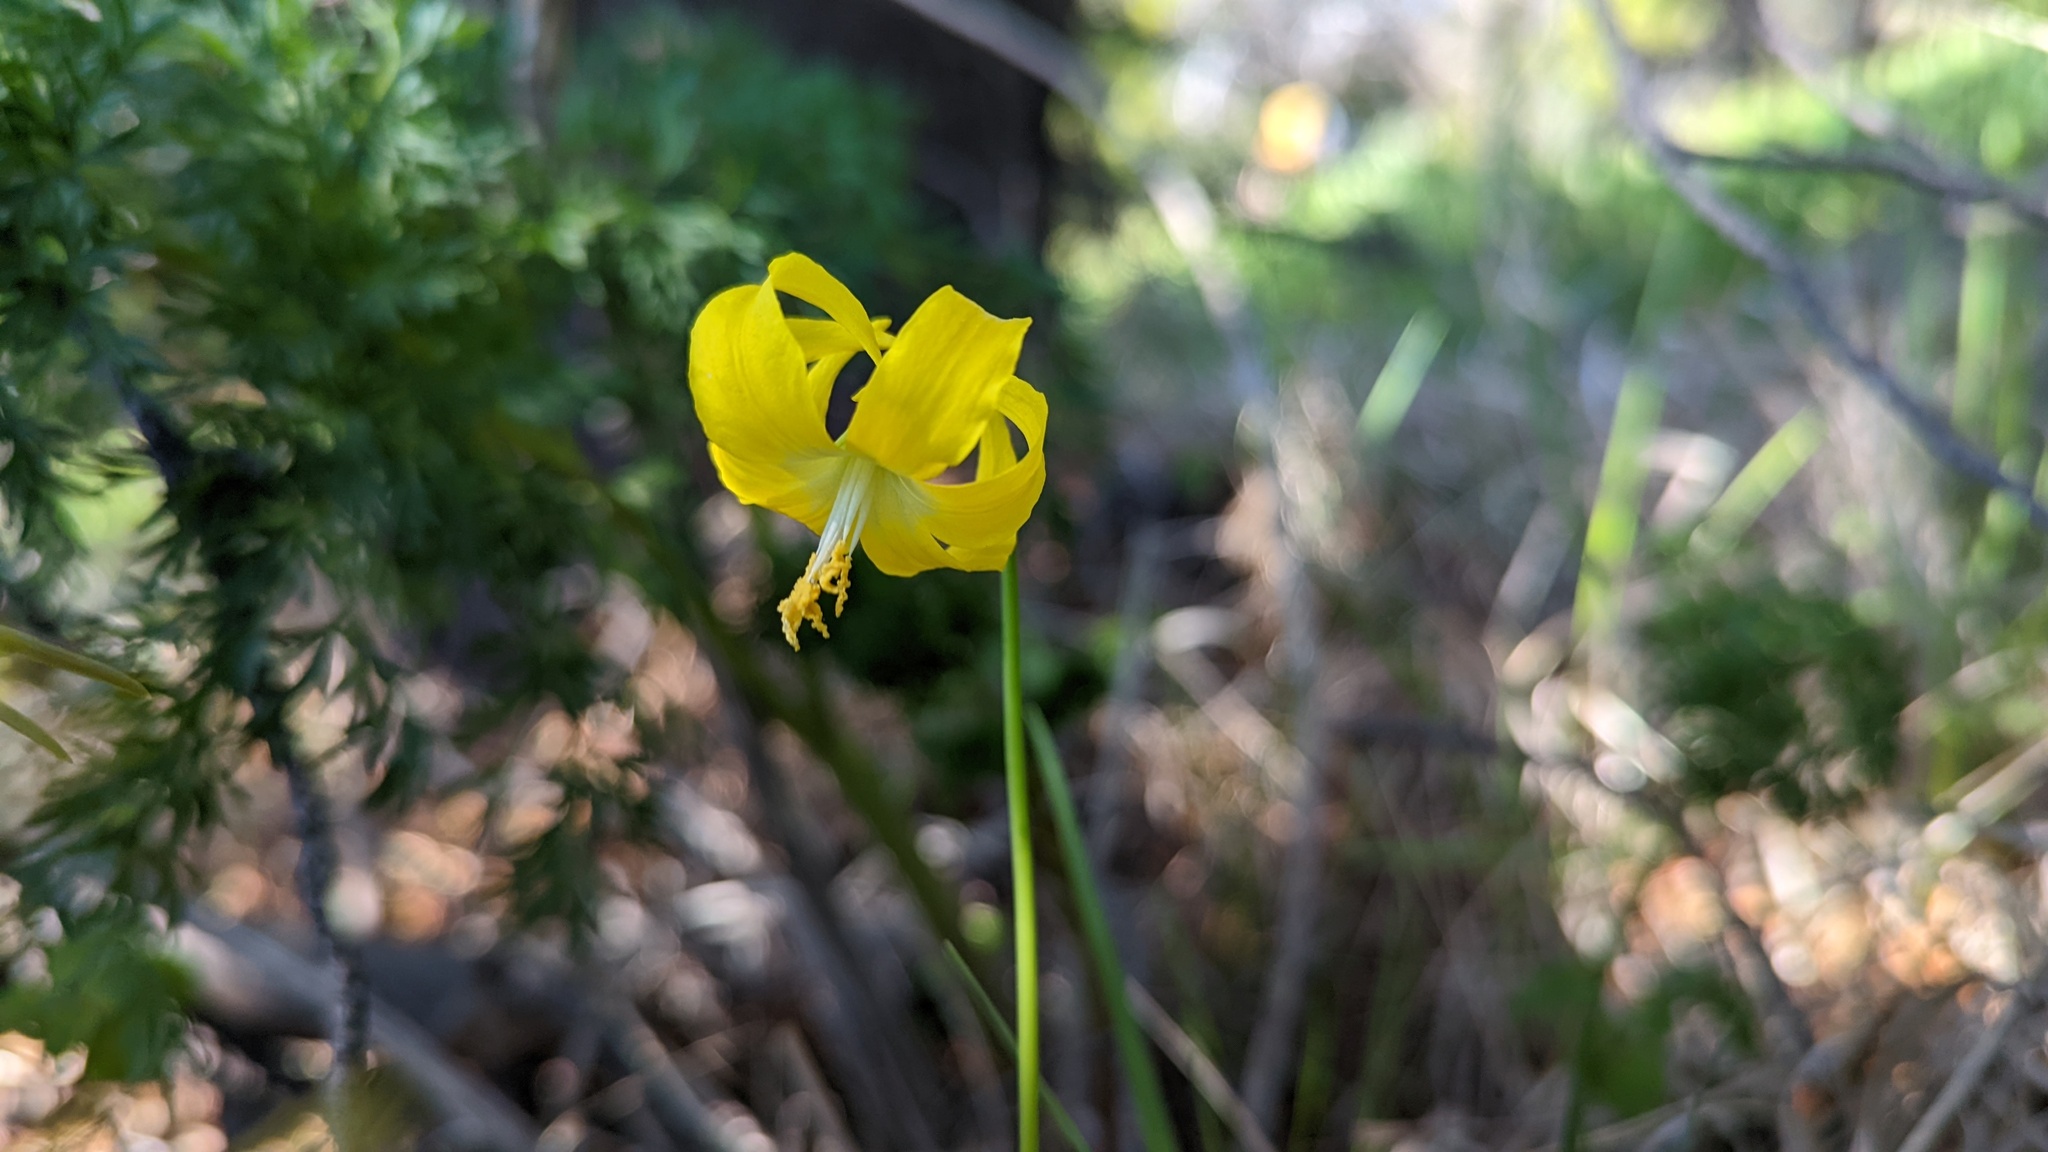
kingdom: Plantae
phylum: Tracheophyta
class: Liliopsida
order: Liliales
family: Liliaceae
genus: Erythronium
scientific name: Erythronium grandiflorum
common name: Avalanche-lily
